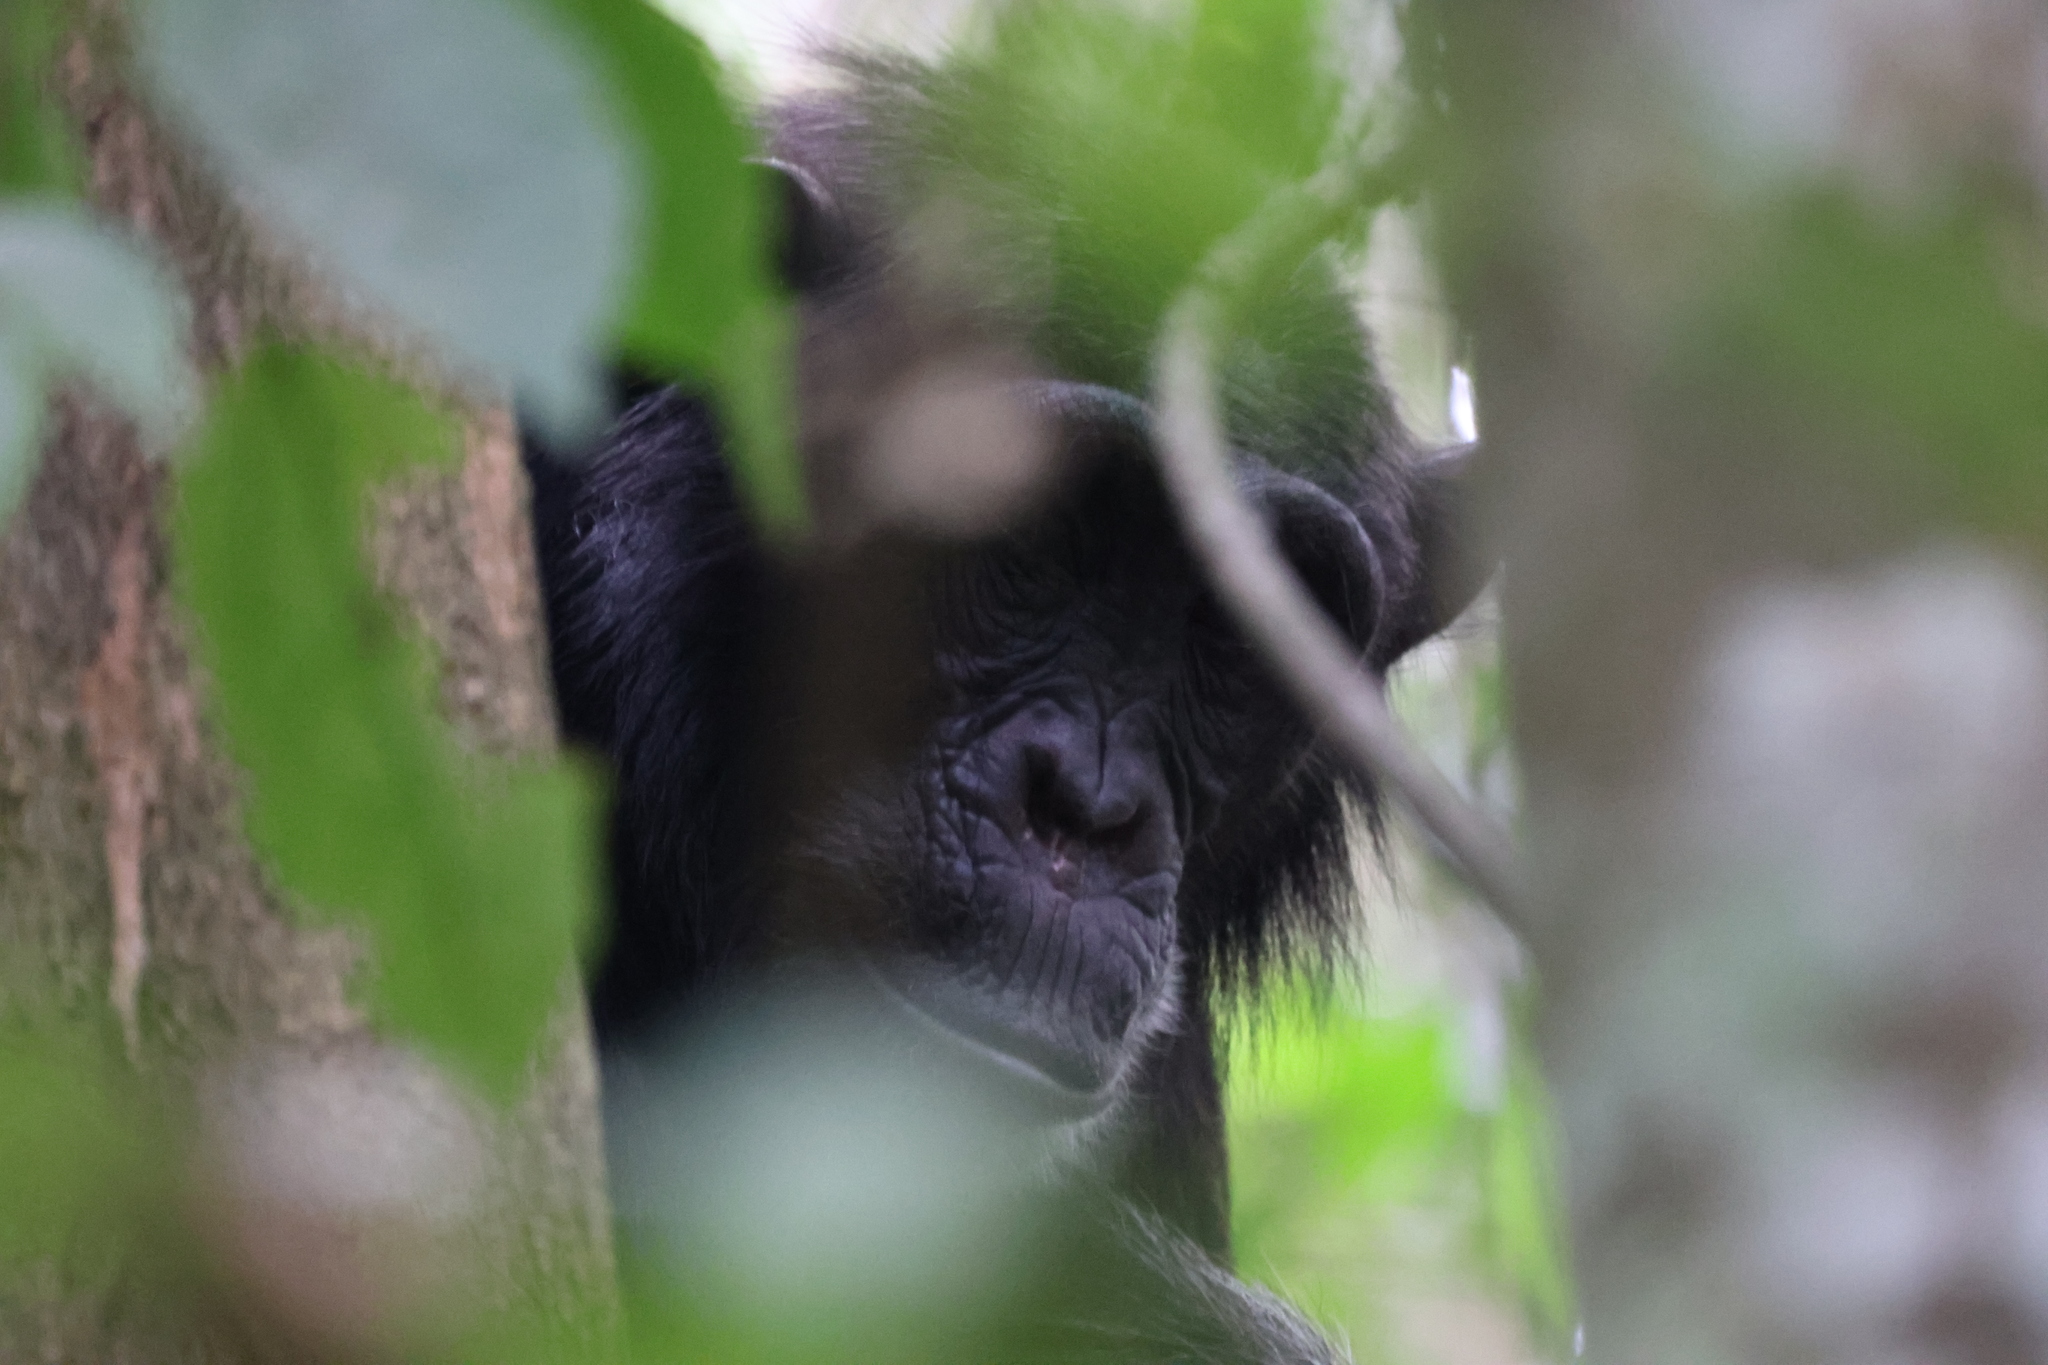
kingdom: Animalia
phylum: Chordata
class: Mammalia
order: Primates
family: Hominidae
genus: Pan
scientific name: Pan troglodytes
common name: Chimpanzee
